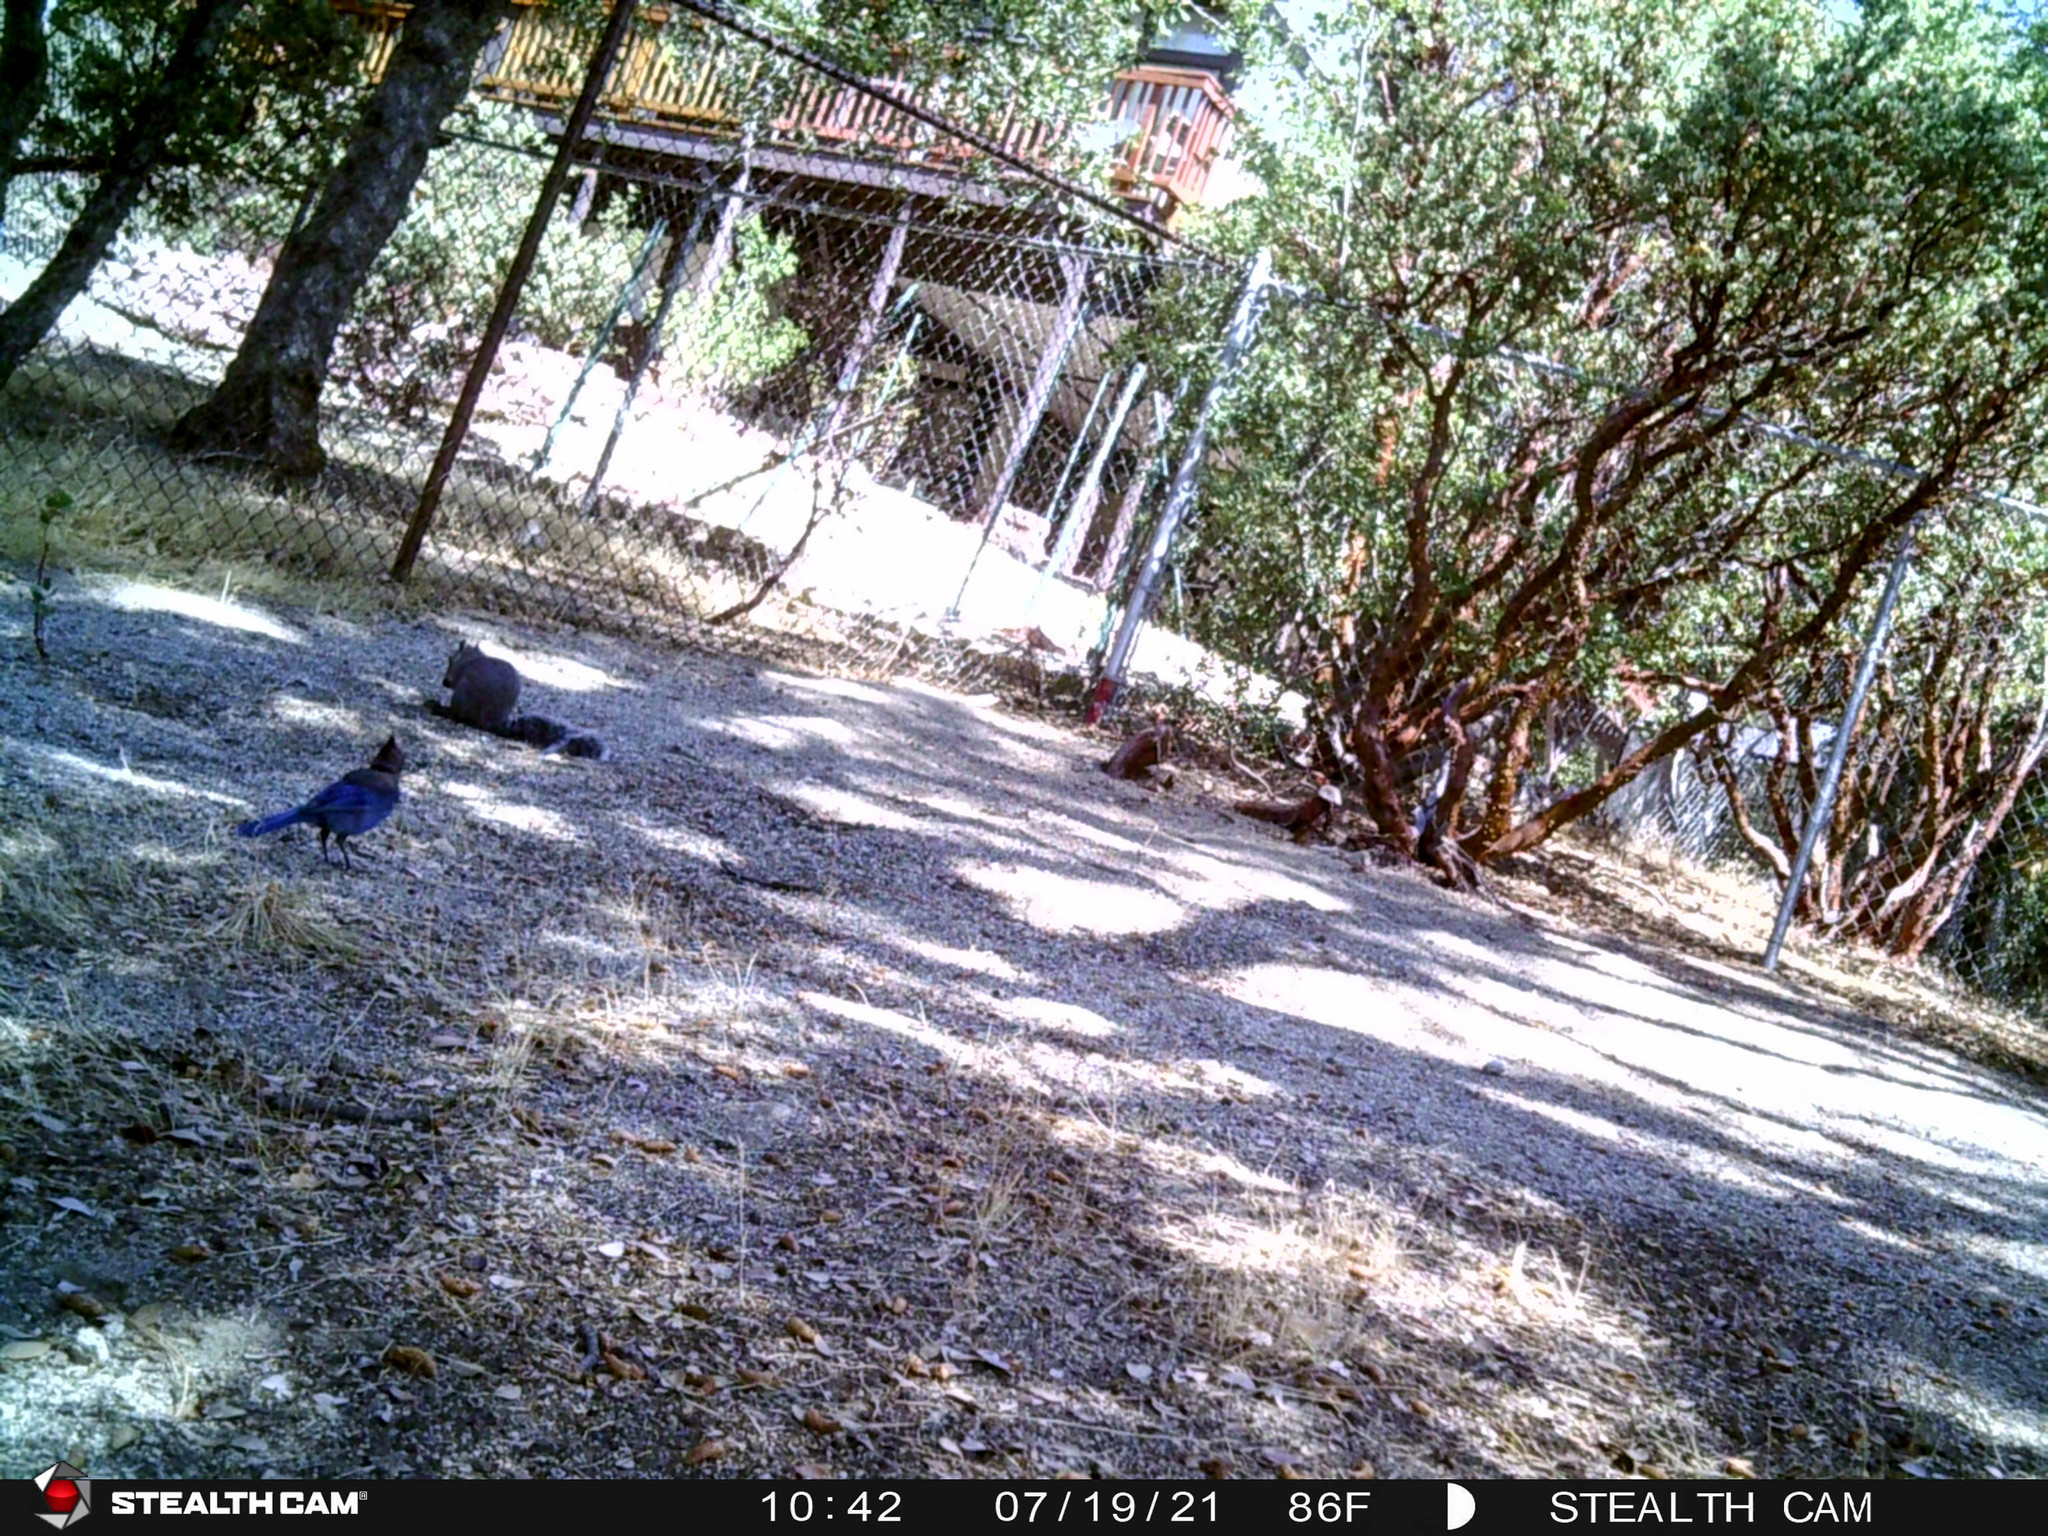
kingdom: Animalia
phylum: Chordata
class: Aves
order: Passeriformes
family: Corvidae
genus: Cyanocitta
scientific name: Cyanocitta stelleri
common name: Steller's jay
